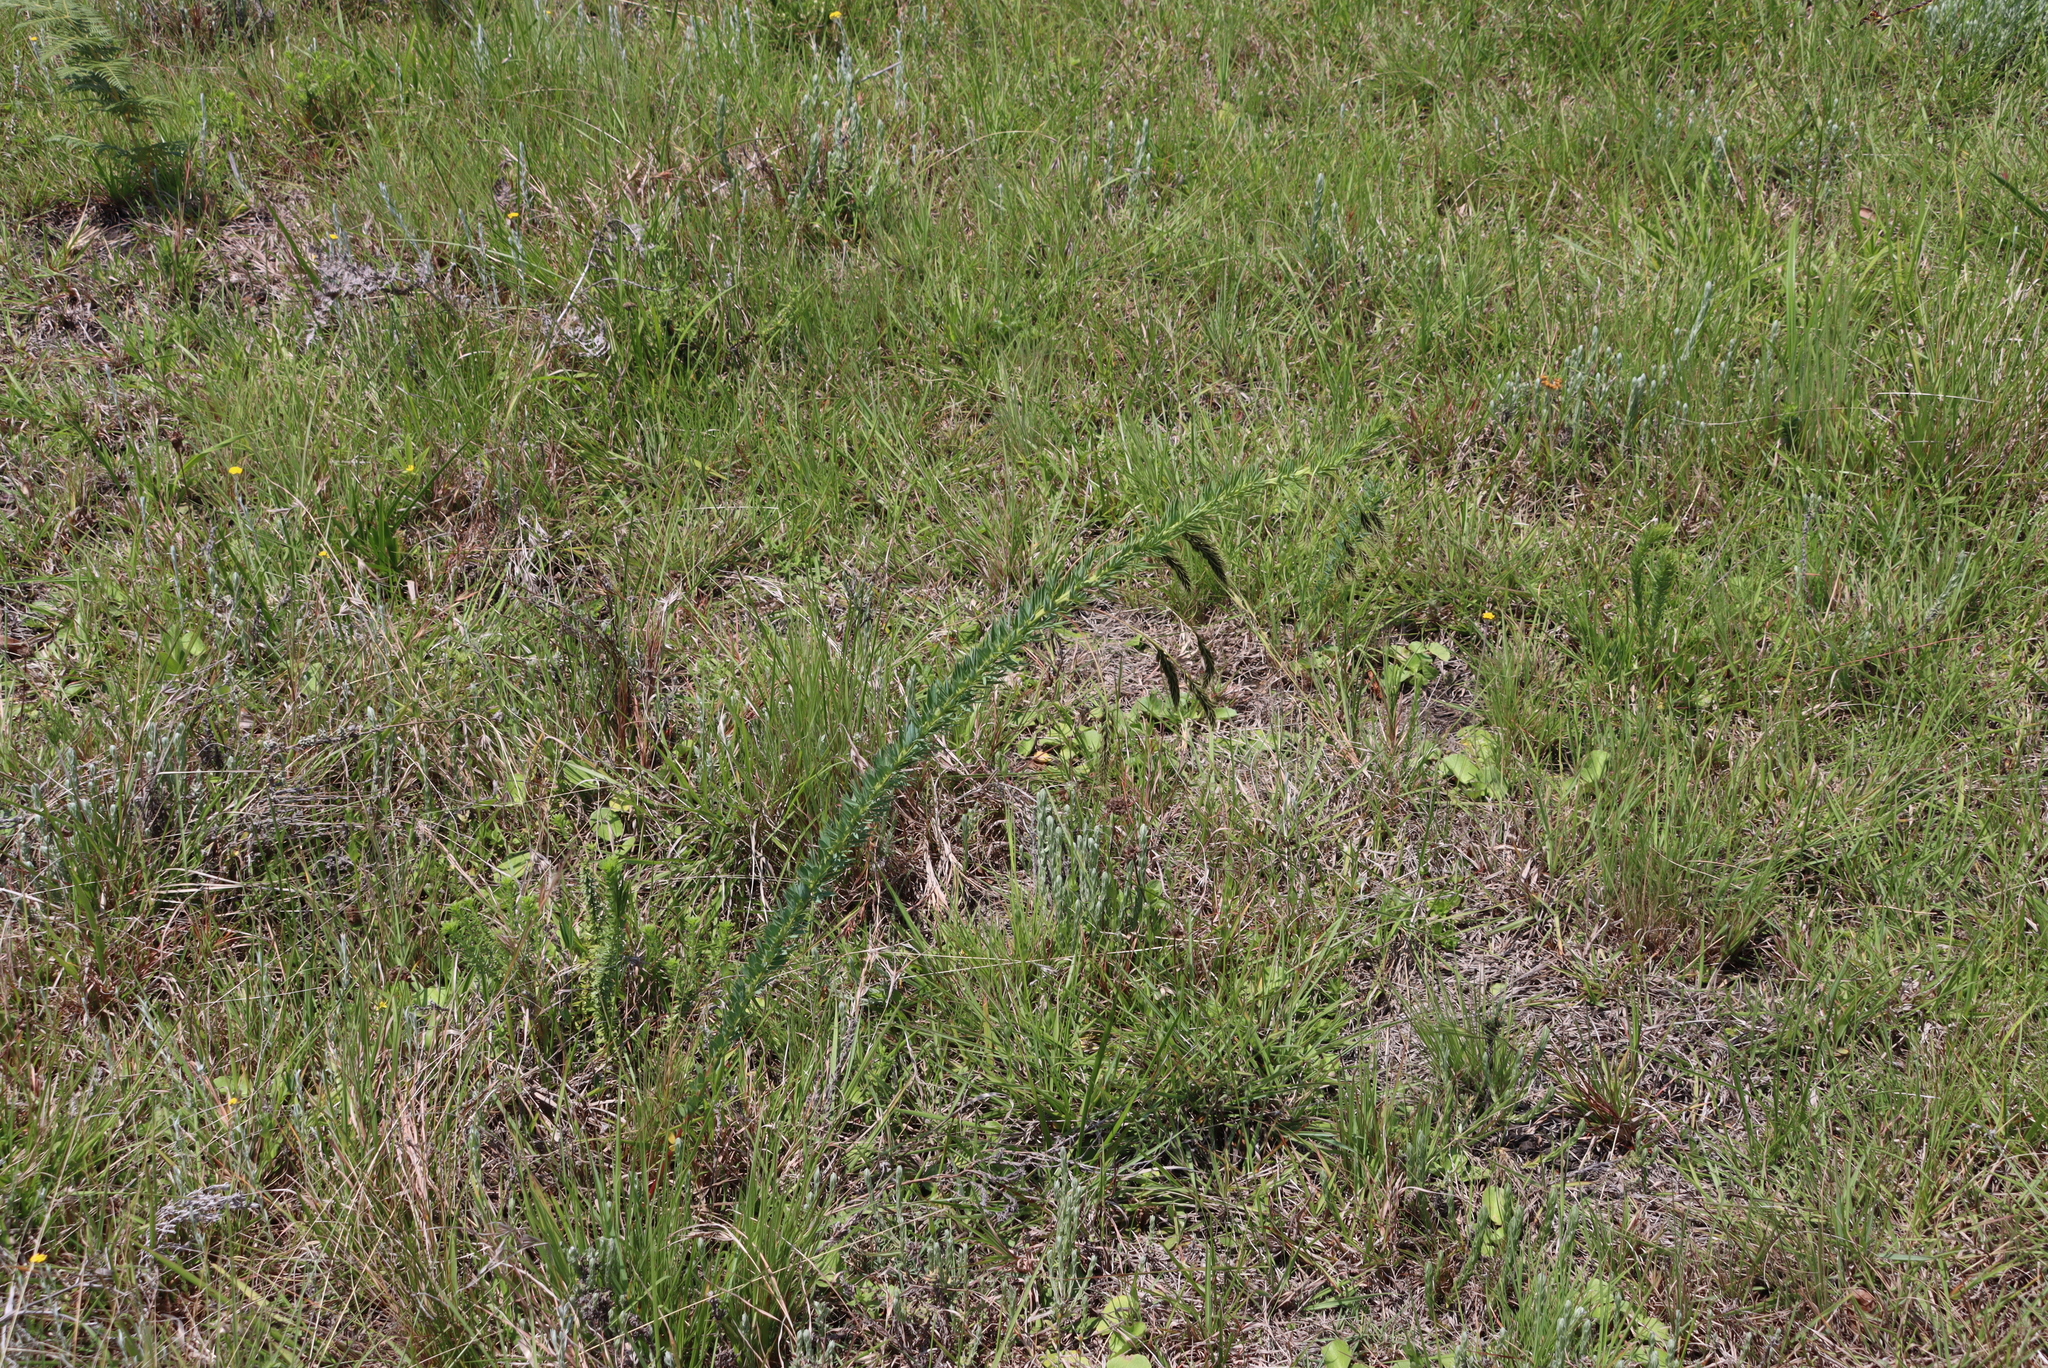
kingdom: Plantae
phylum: Tracheophyta
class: Magnoliopsida
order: Fabales
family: Fabaceae
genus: Indigofera
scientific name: Indigofera rostrata
